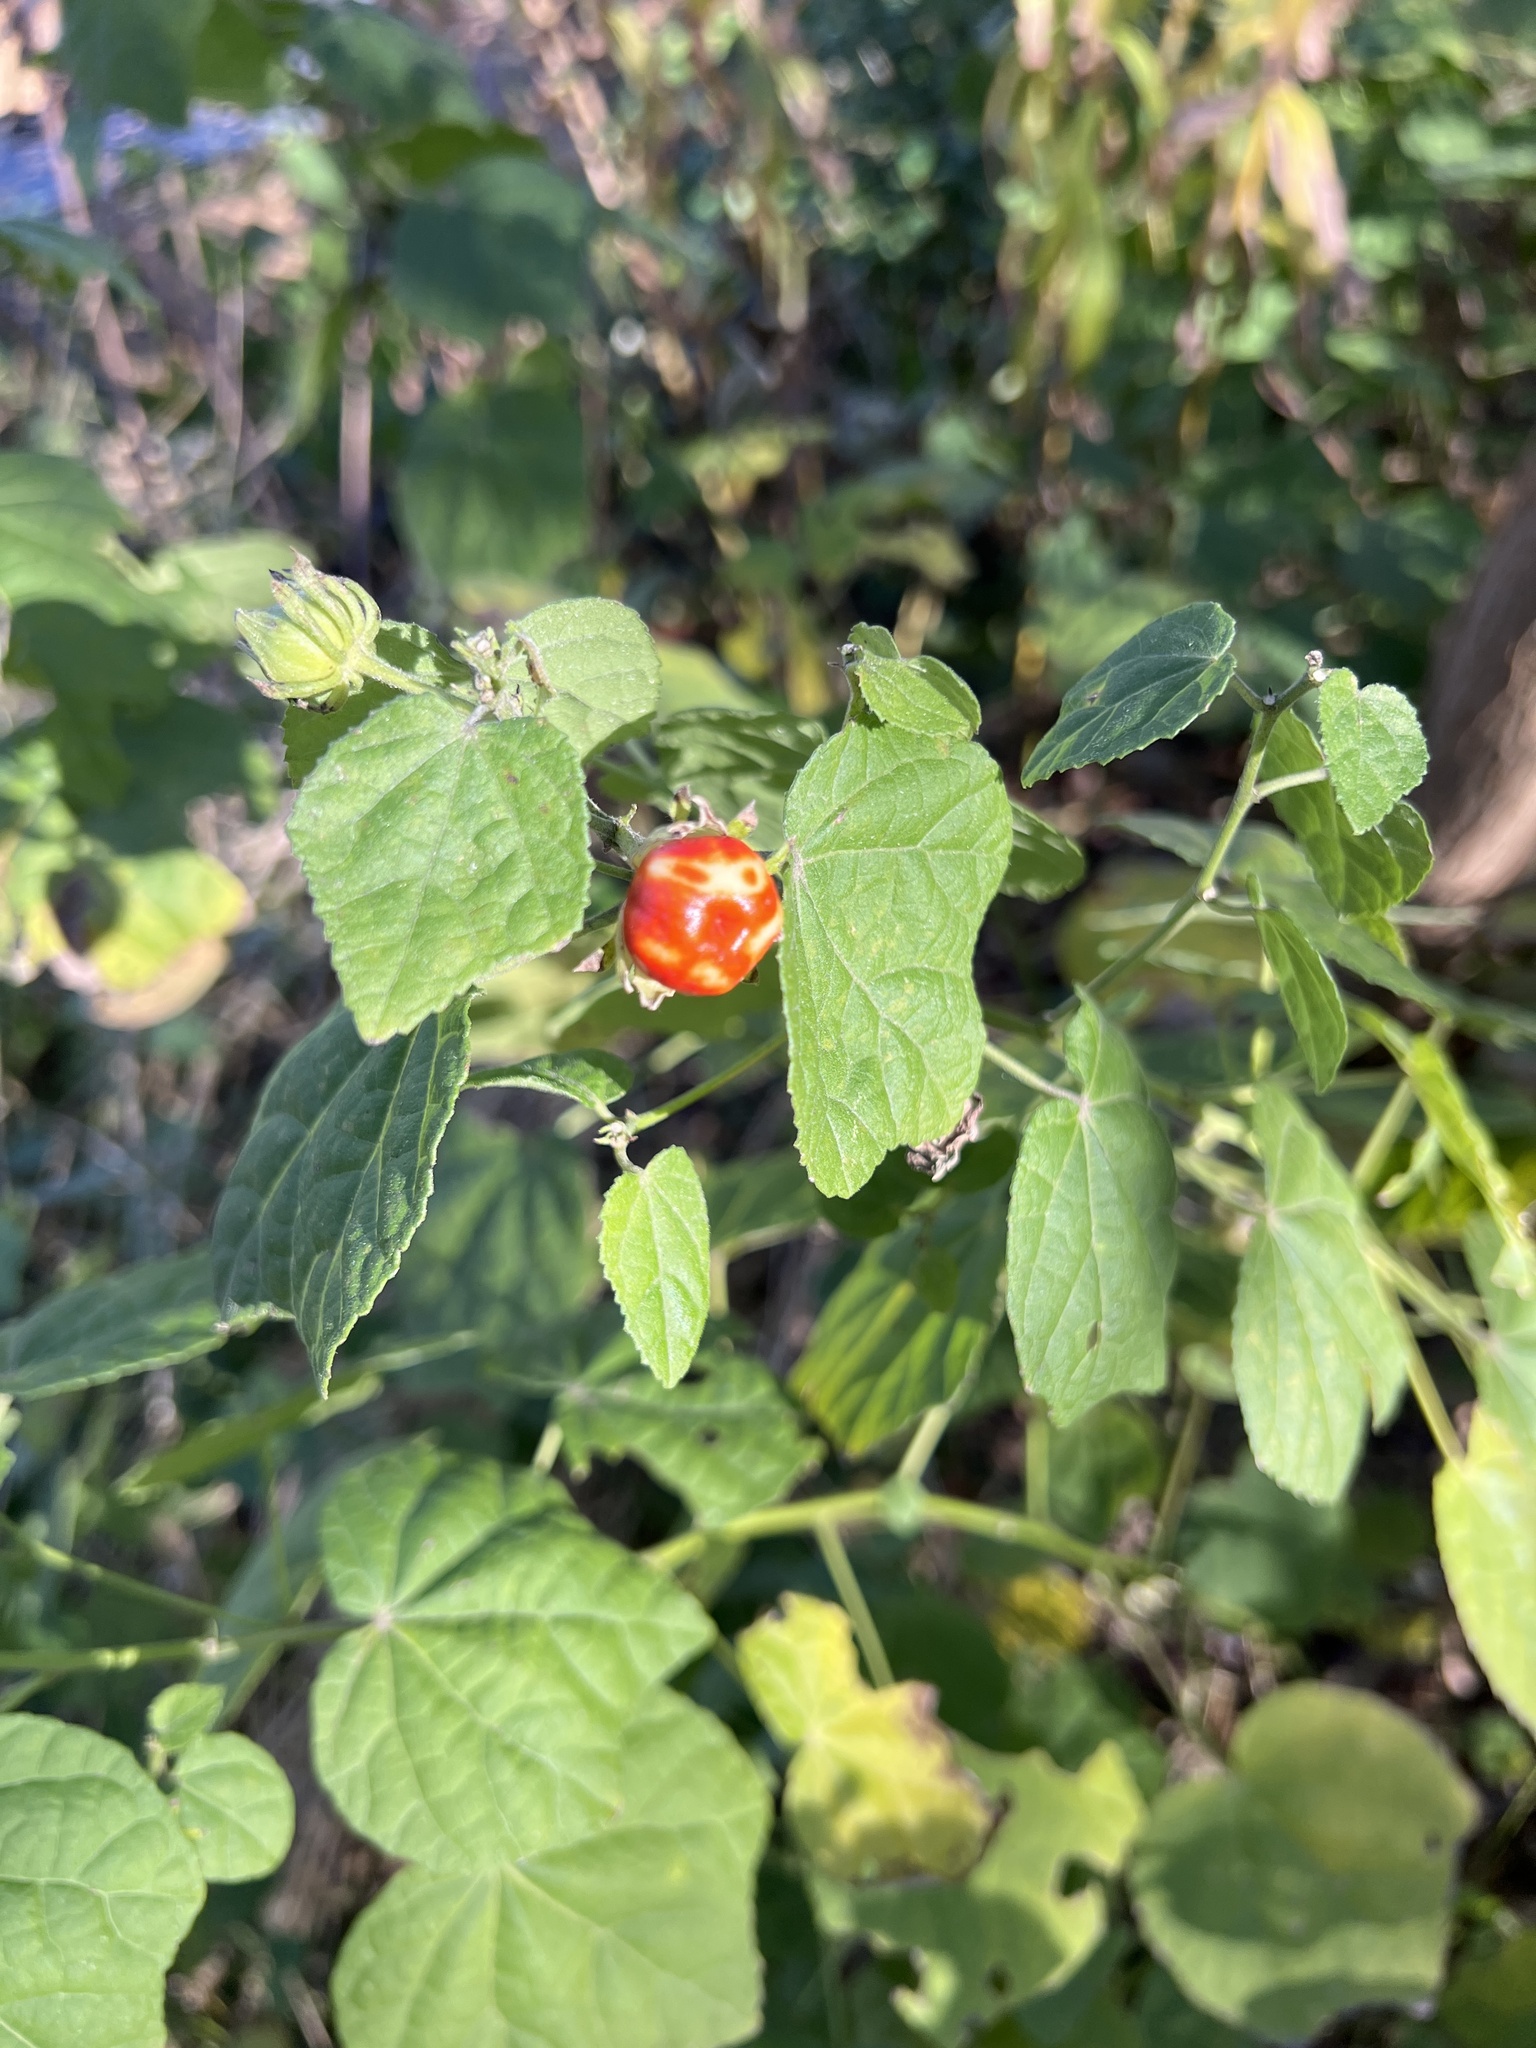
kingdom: Plantae
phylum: Tracheophyta
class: Magnoliopsida
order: Malvales
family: Malvaceae
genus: Malvaviscus
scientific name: Malvaviscus arboreus
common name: Wax mallow
